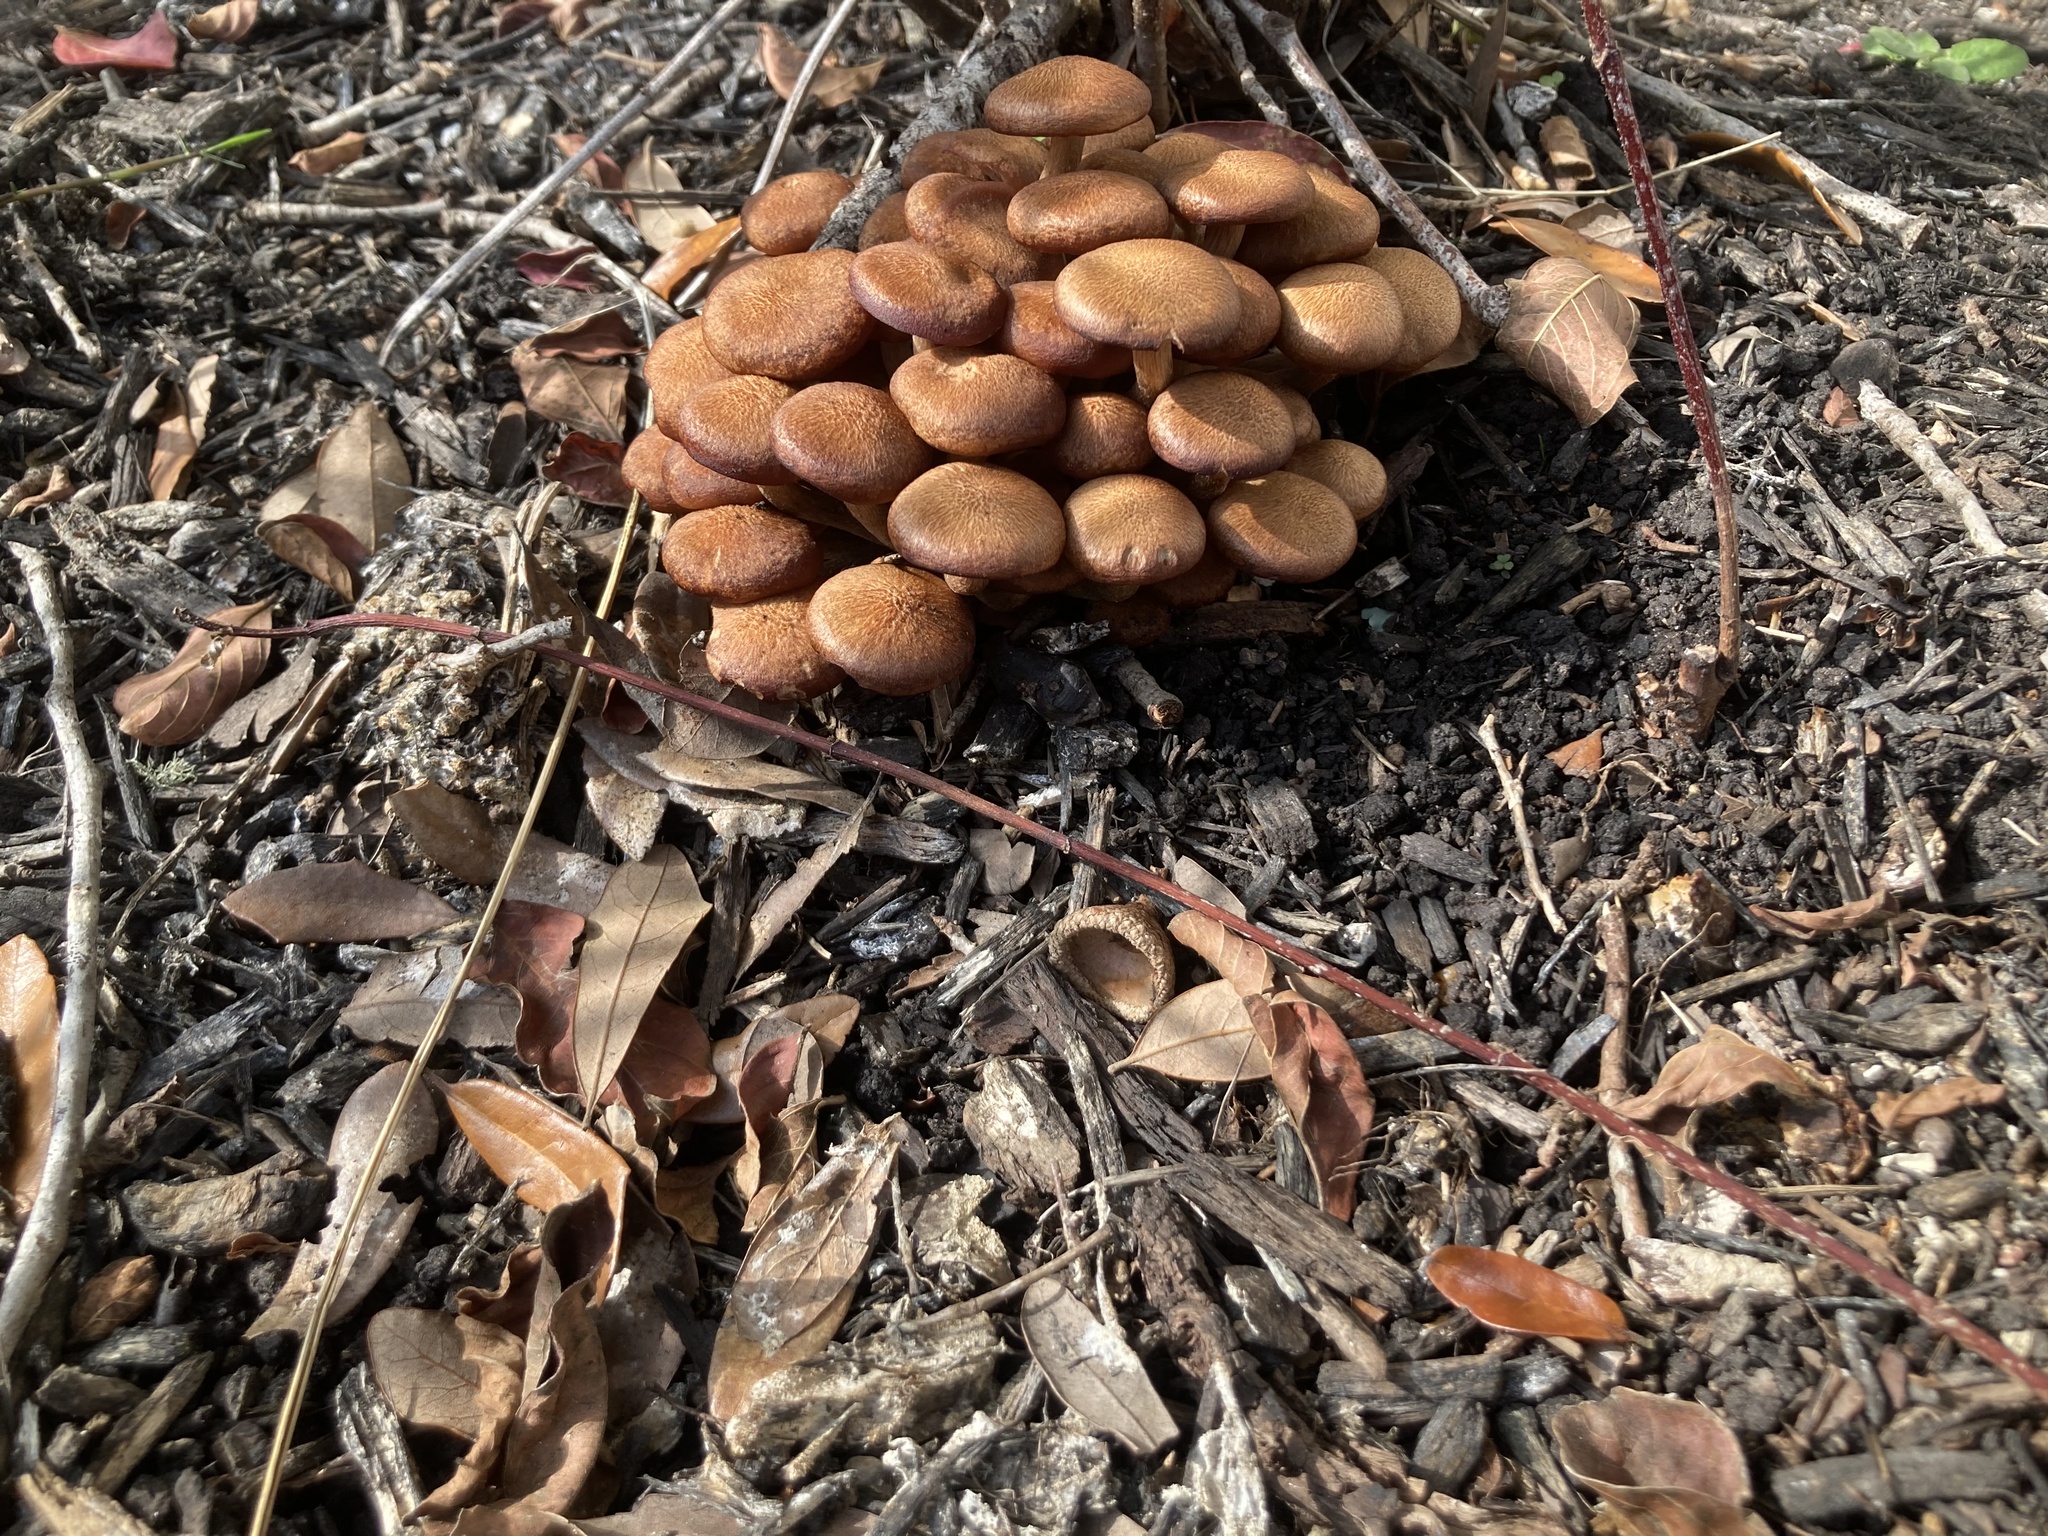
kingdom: Fungi
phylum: Basidiomycota
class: Agaricomycetes
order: Agaricales
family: Physalacriaceae
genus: Desarmillaria
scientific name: Desarmillaria caespitosa
